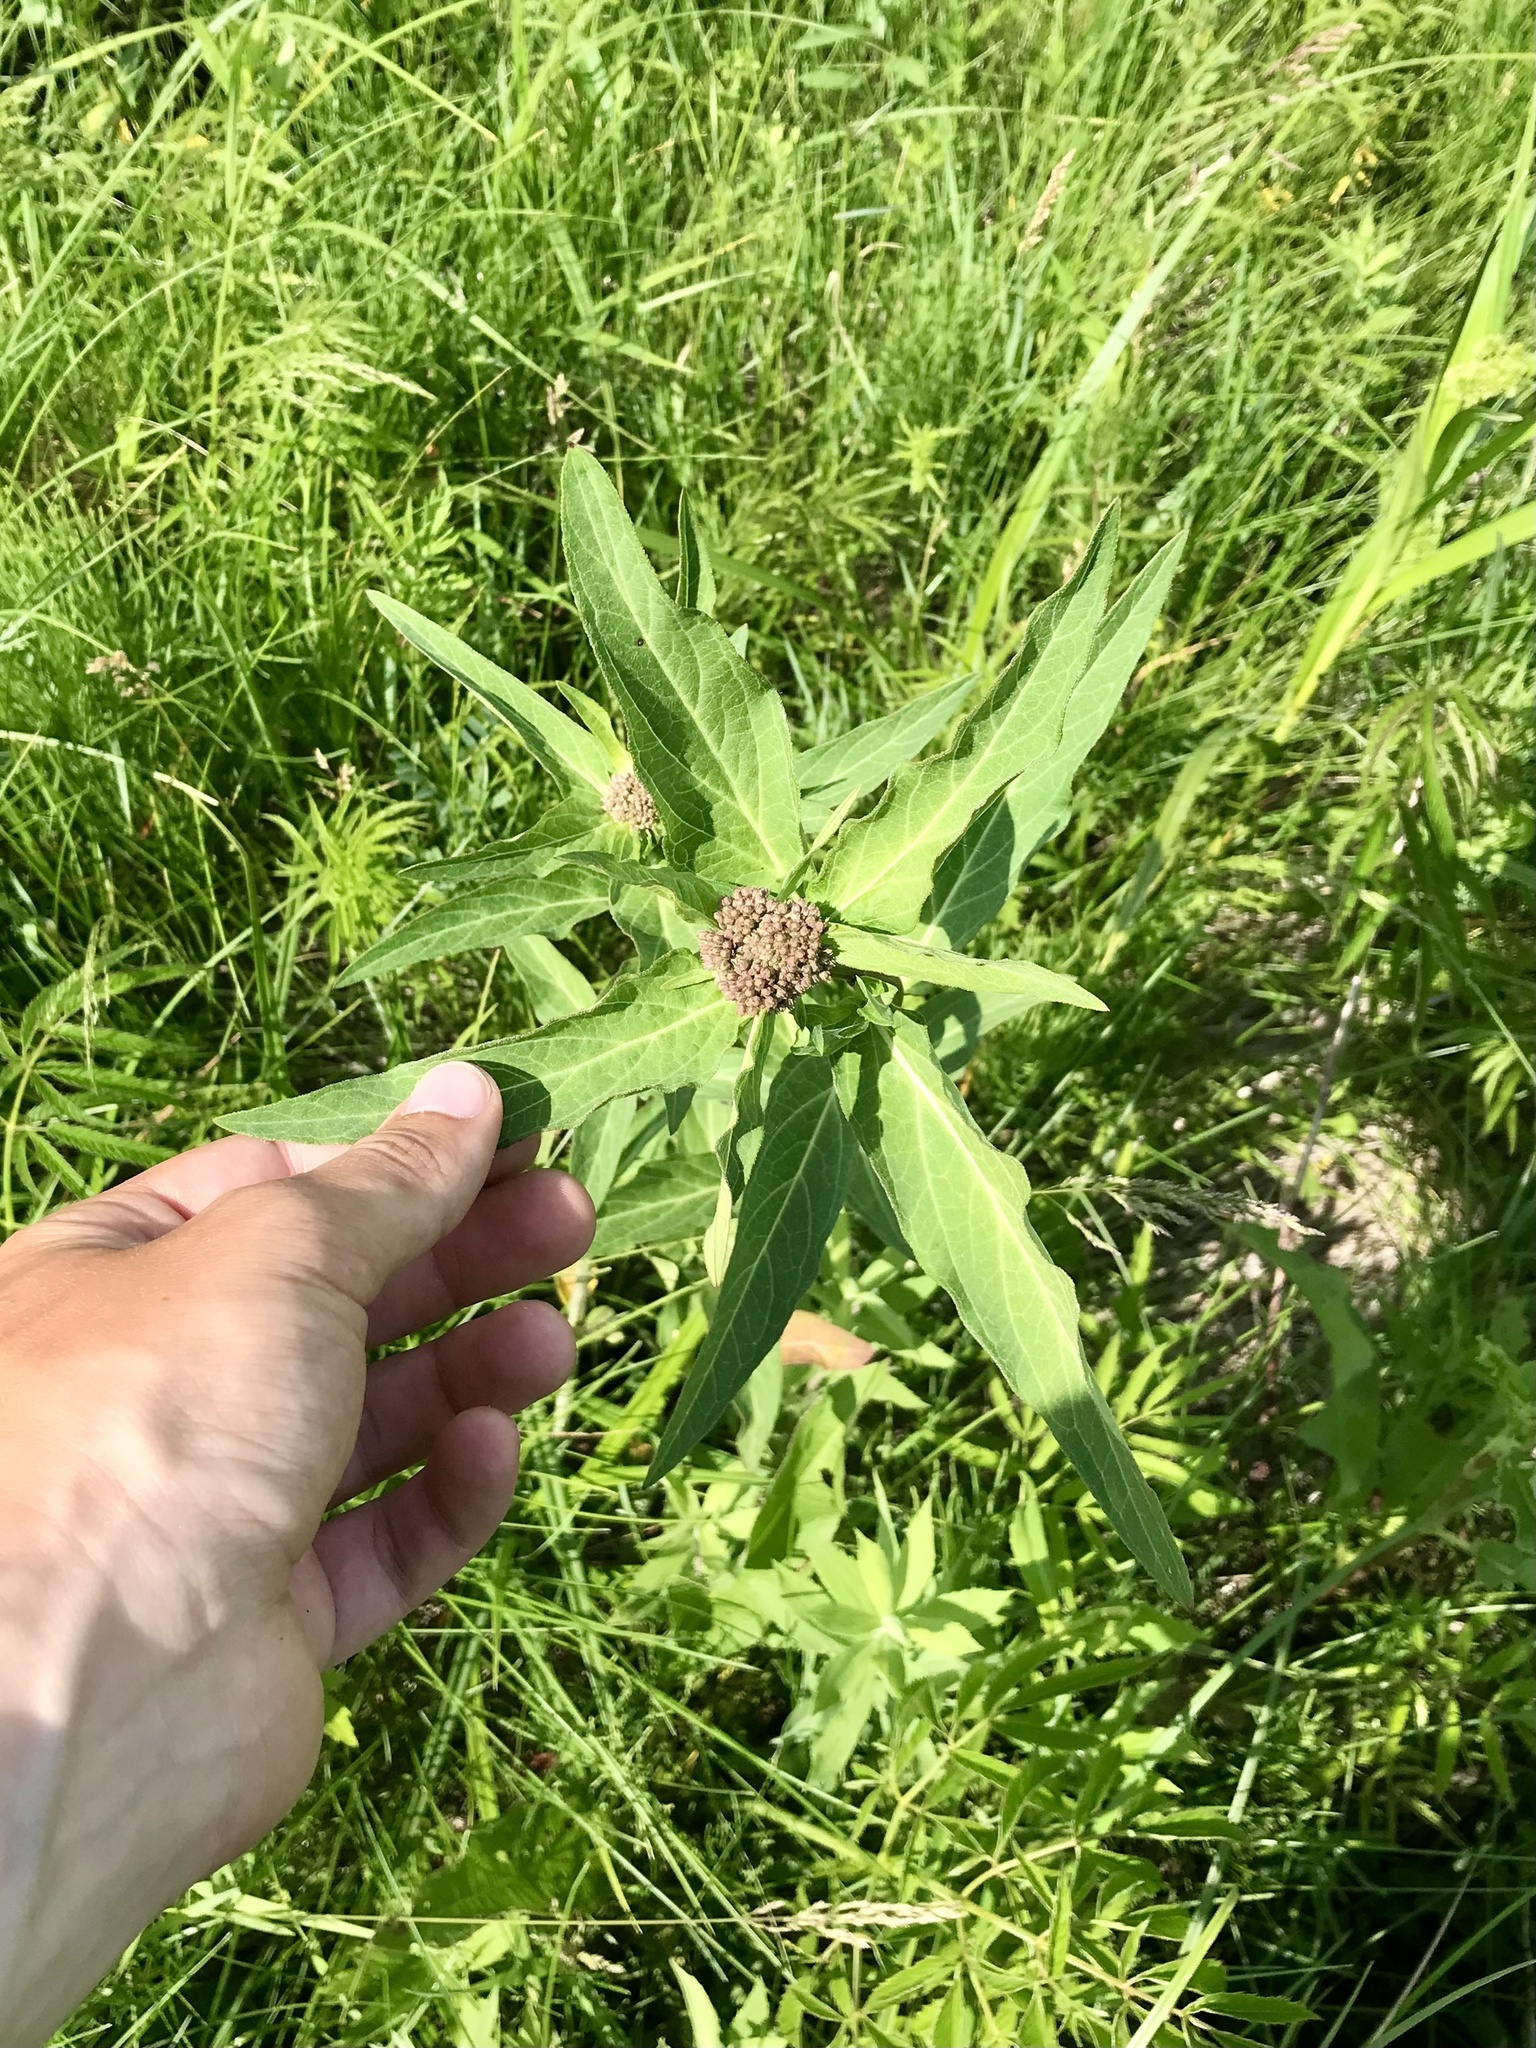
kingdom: Plantae
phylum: Tracheophyta
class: Magnoliopsida
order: Gentianales
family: Apocynaceae
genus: Asclepias
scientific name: Asclepias incarnata
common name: Swamp milkweed
